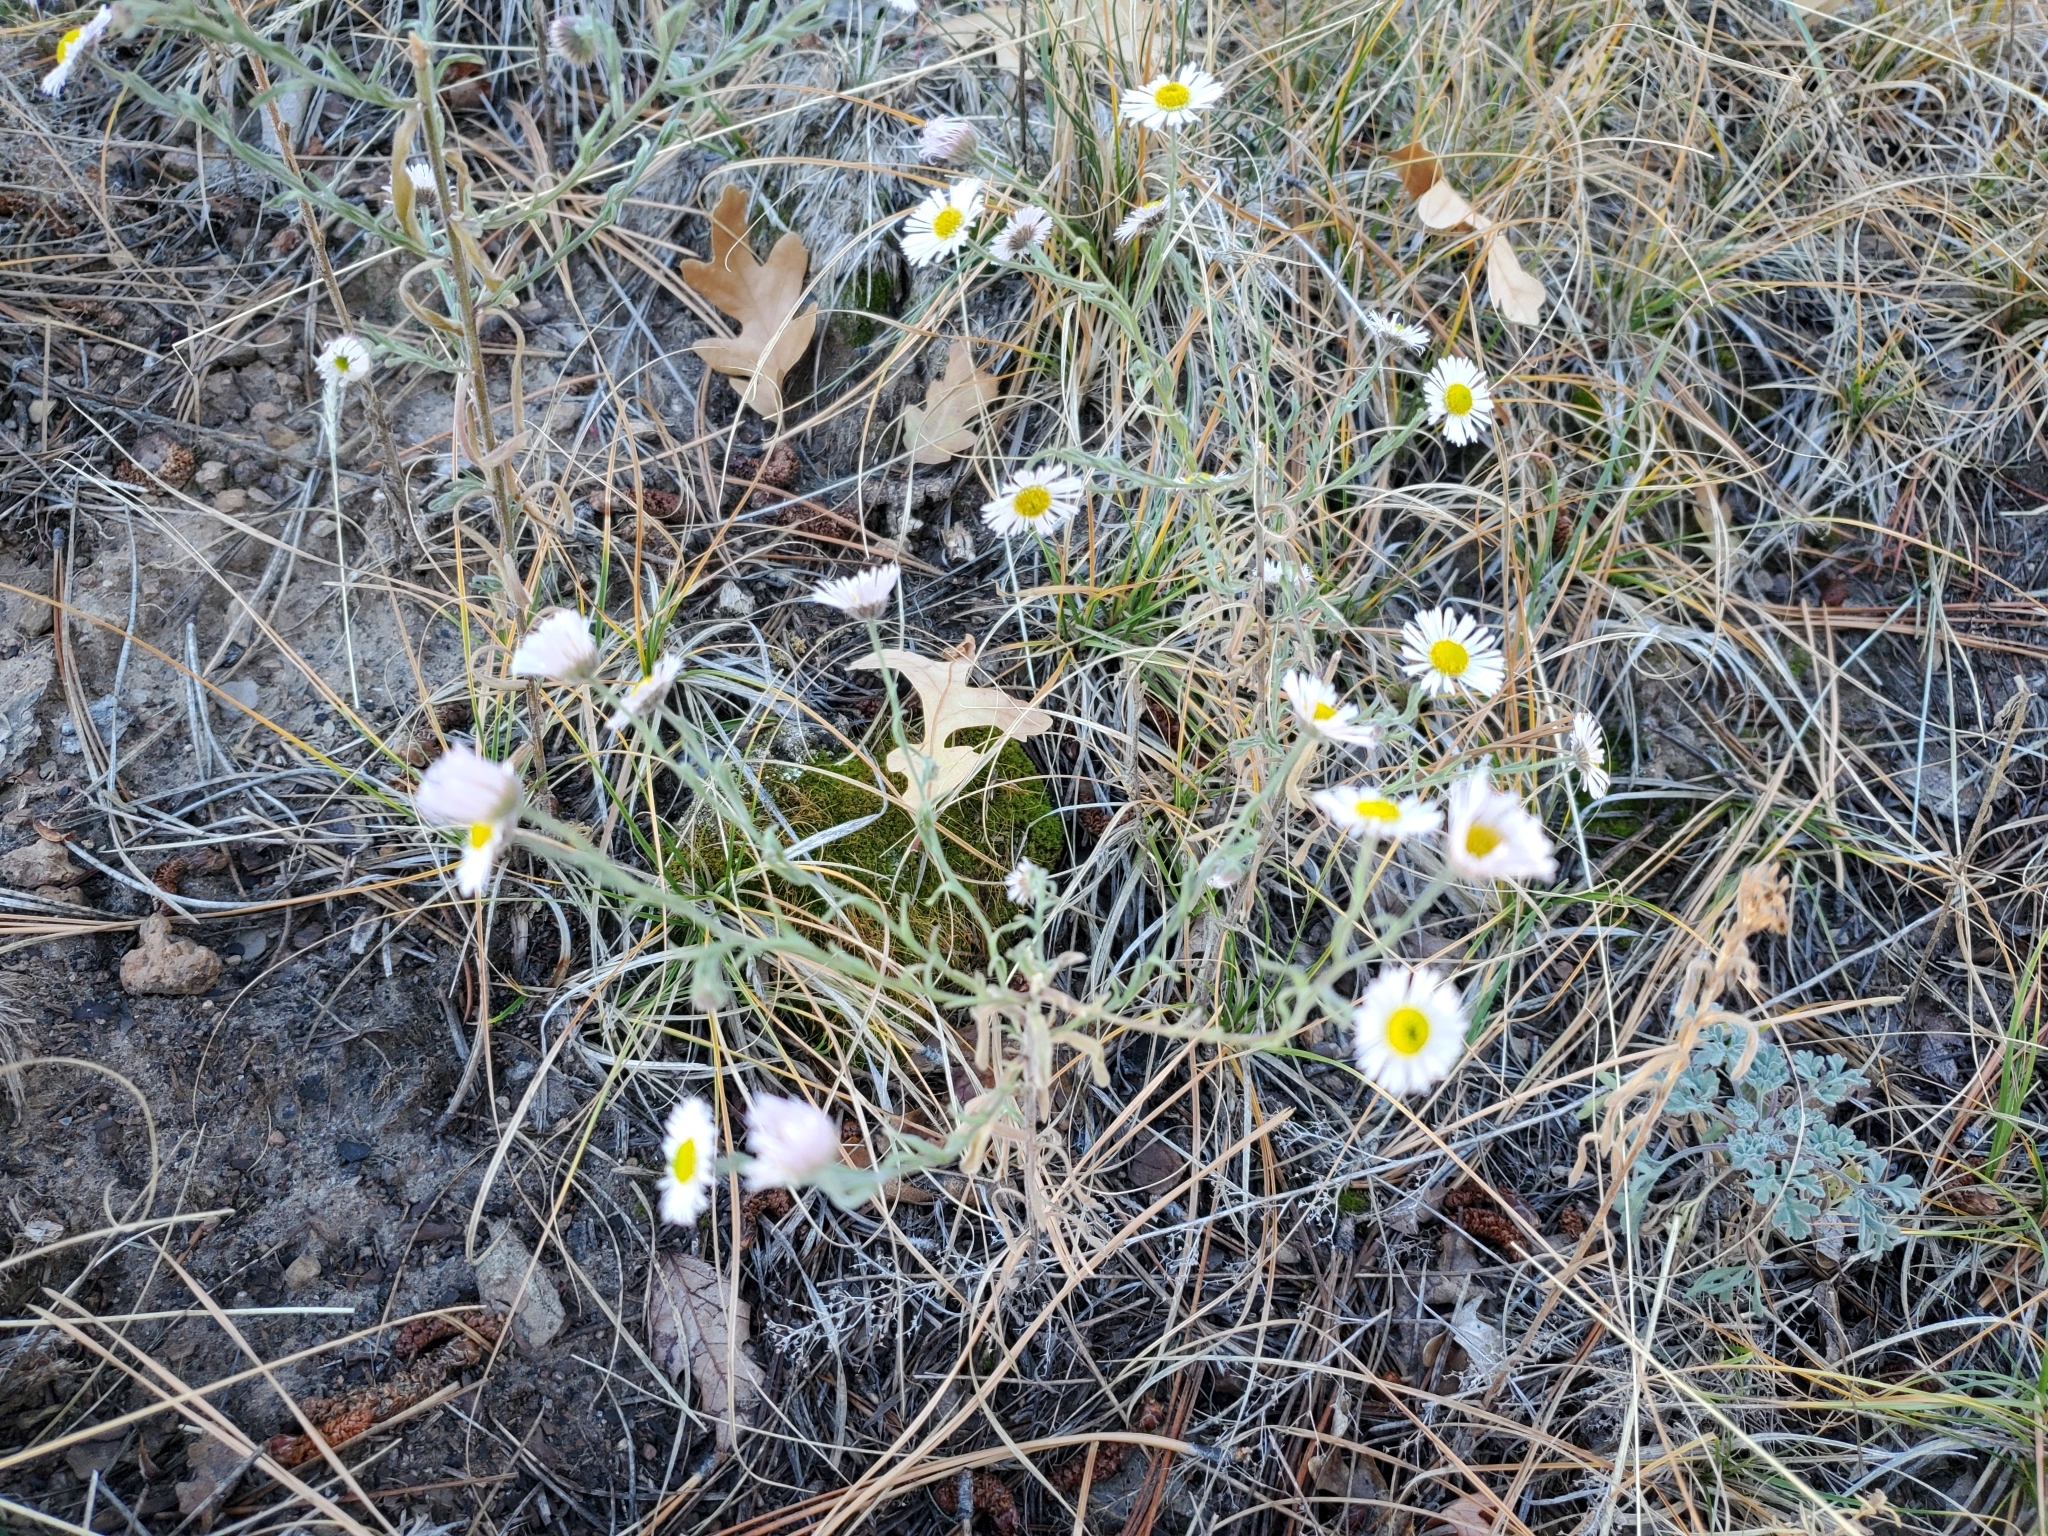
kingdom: Plantae
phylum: Tracheophyta
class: Magnoliopsida
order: Asterales
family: Asteraceae
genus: Erigeron
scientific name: Erigeron divergens
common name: Diffuse fleabane
